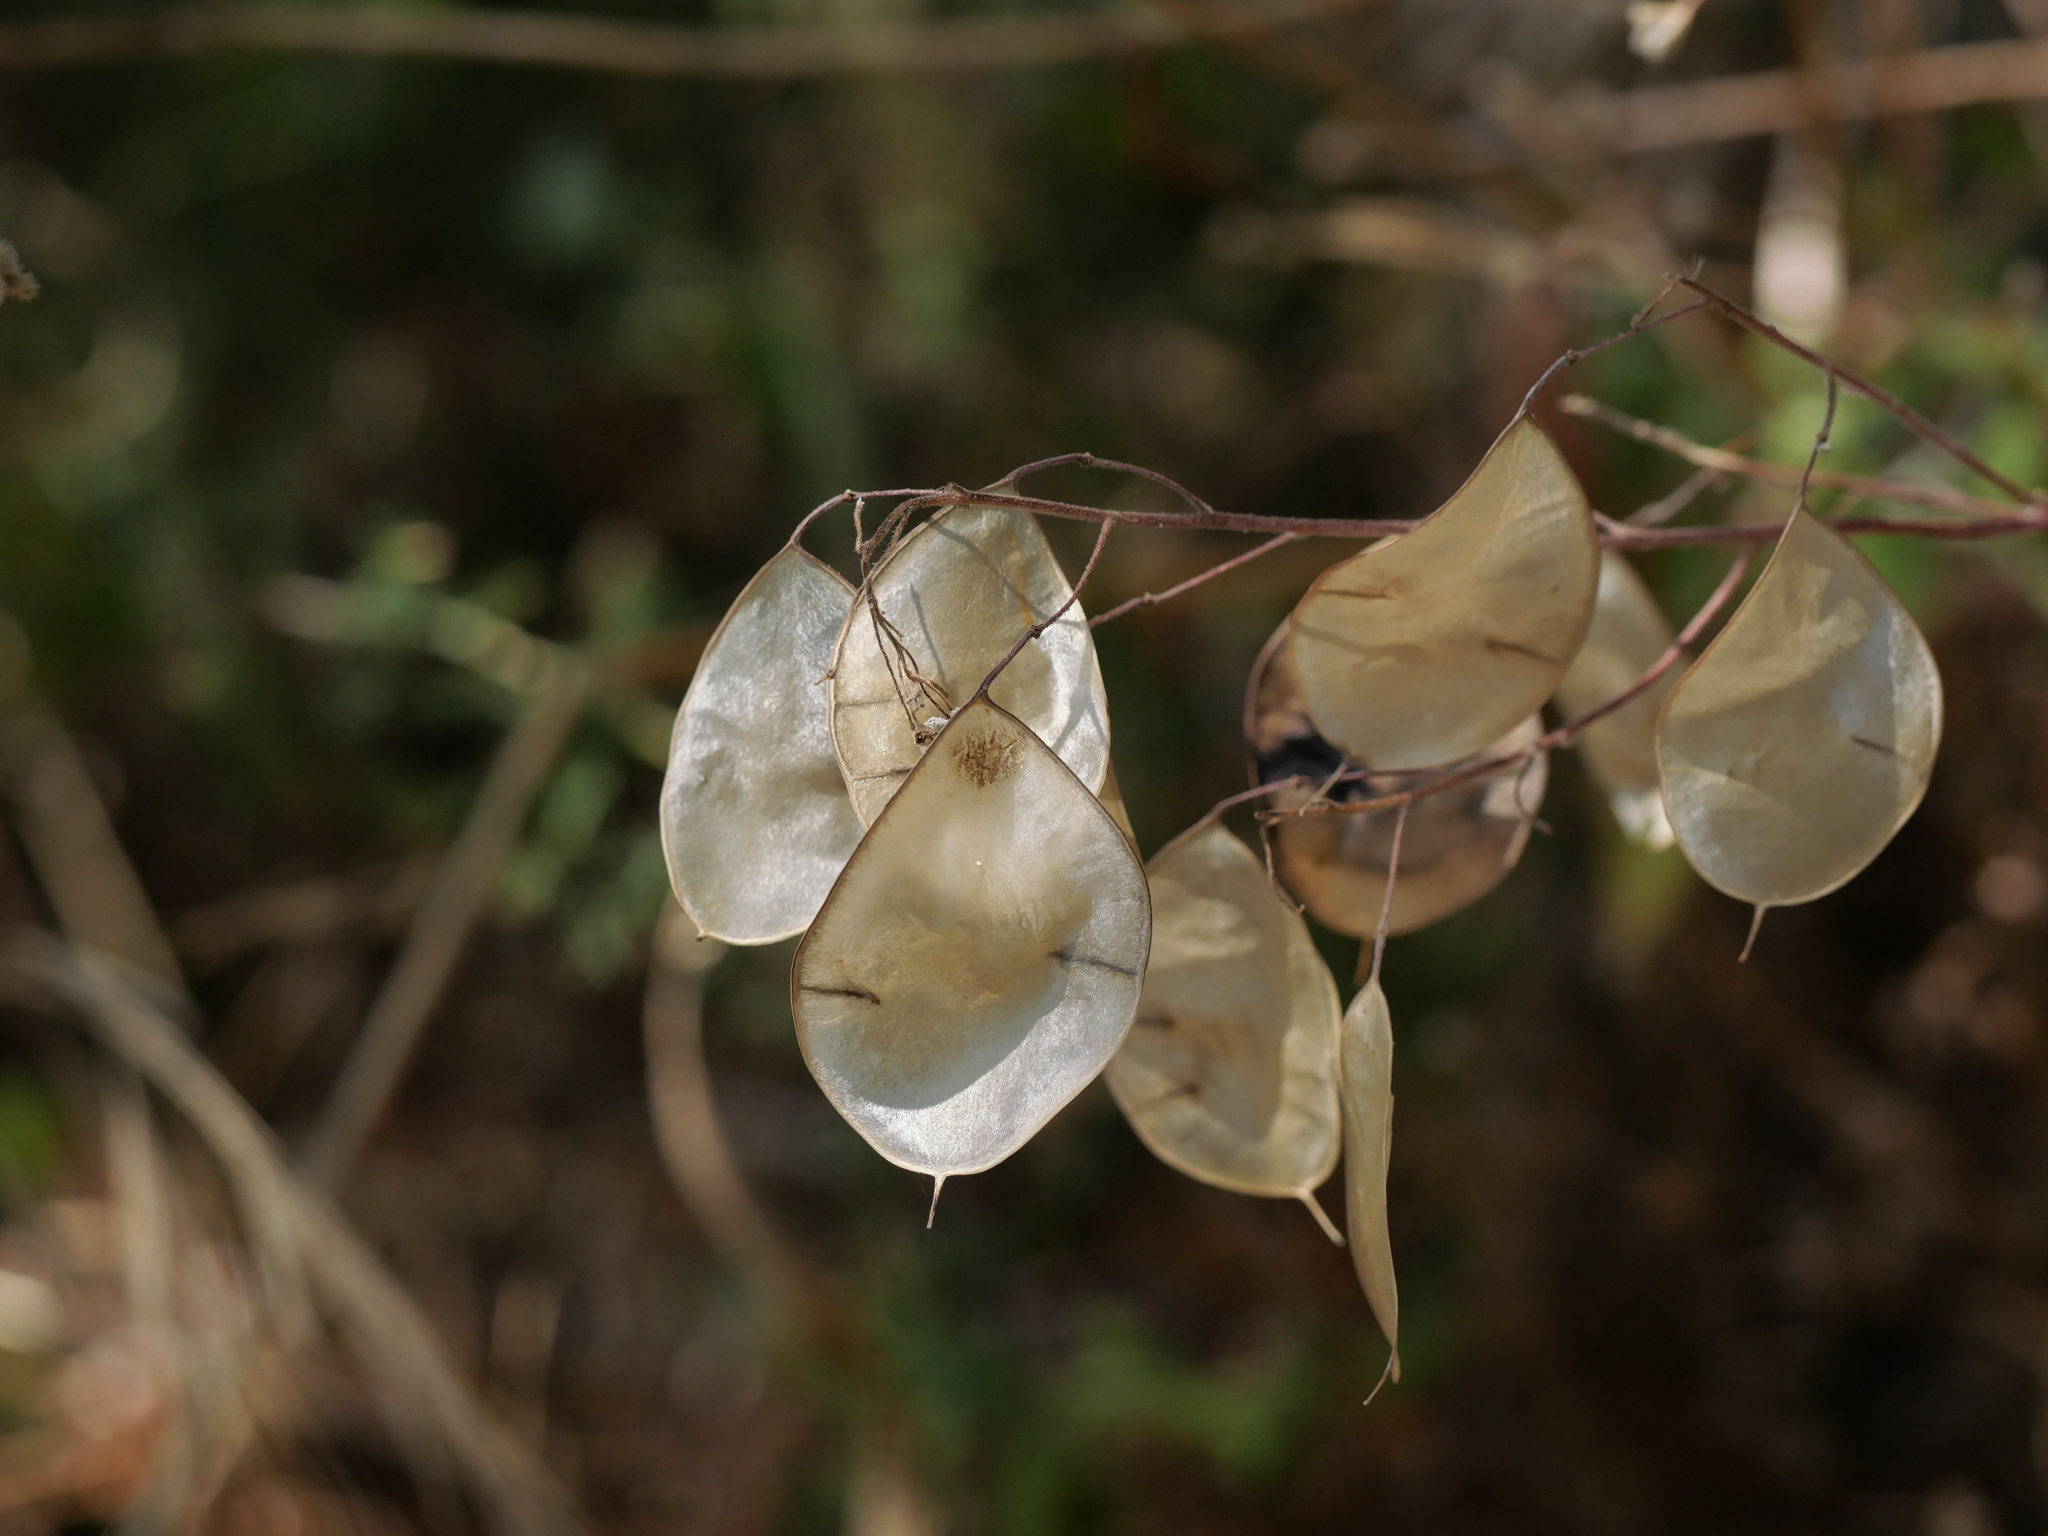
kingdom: Plantae
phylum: Tracheophyta
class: Magnoliopsida
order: Brassicales
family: Brassicaceae
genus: Lunaria
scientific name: Lunaria annua
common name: Honesty
